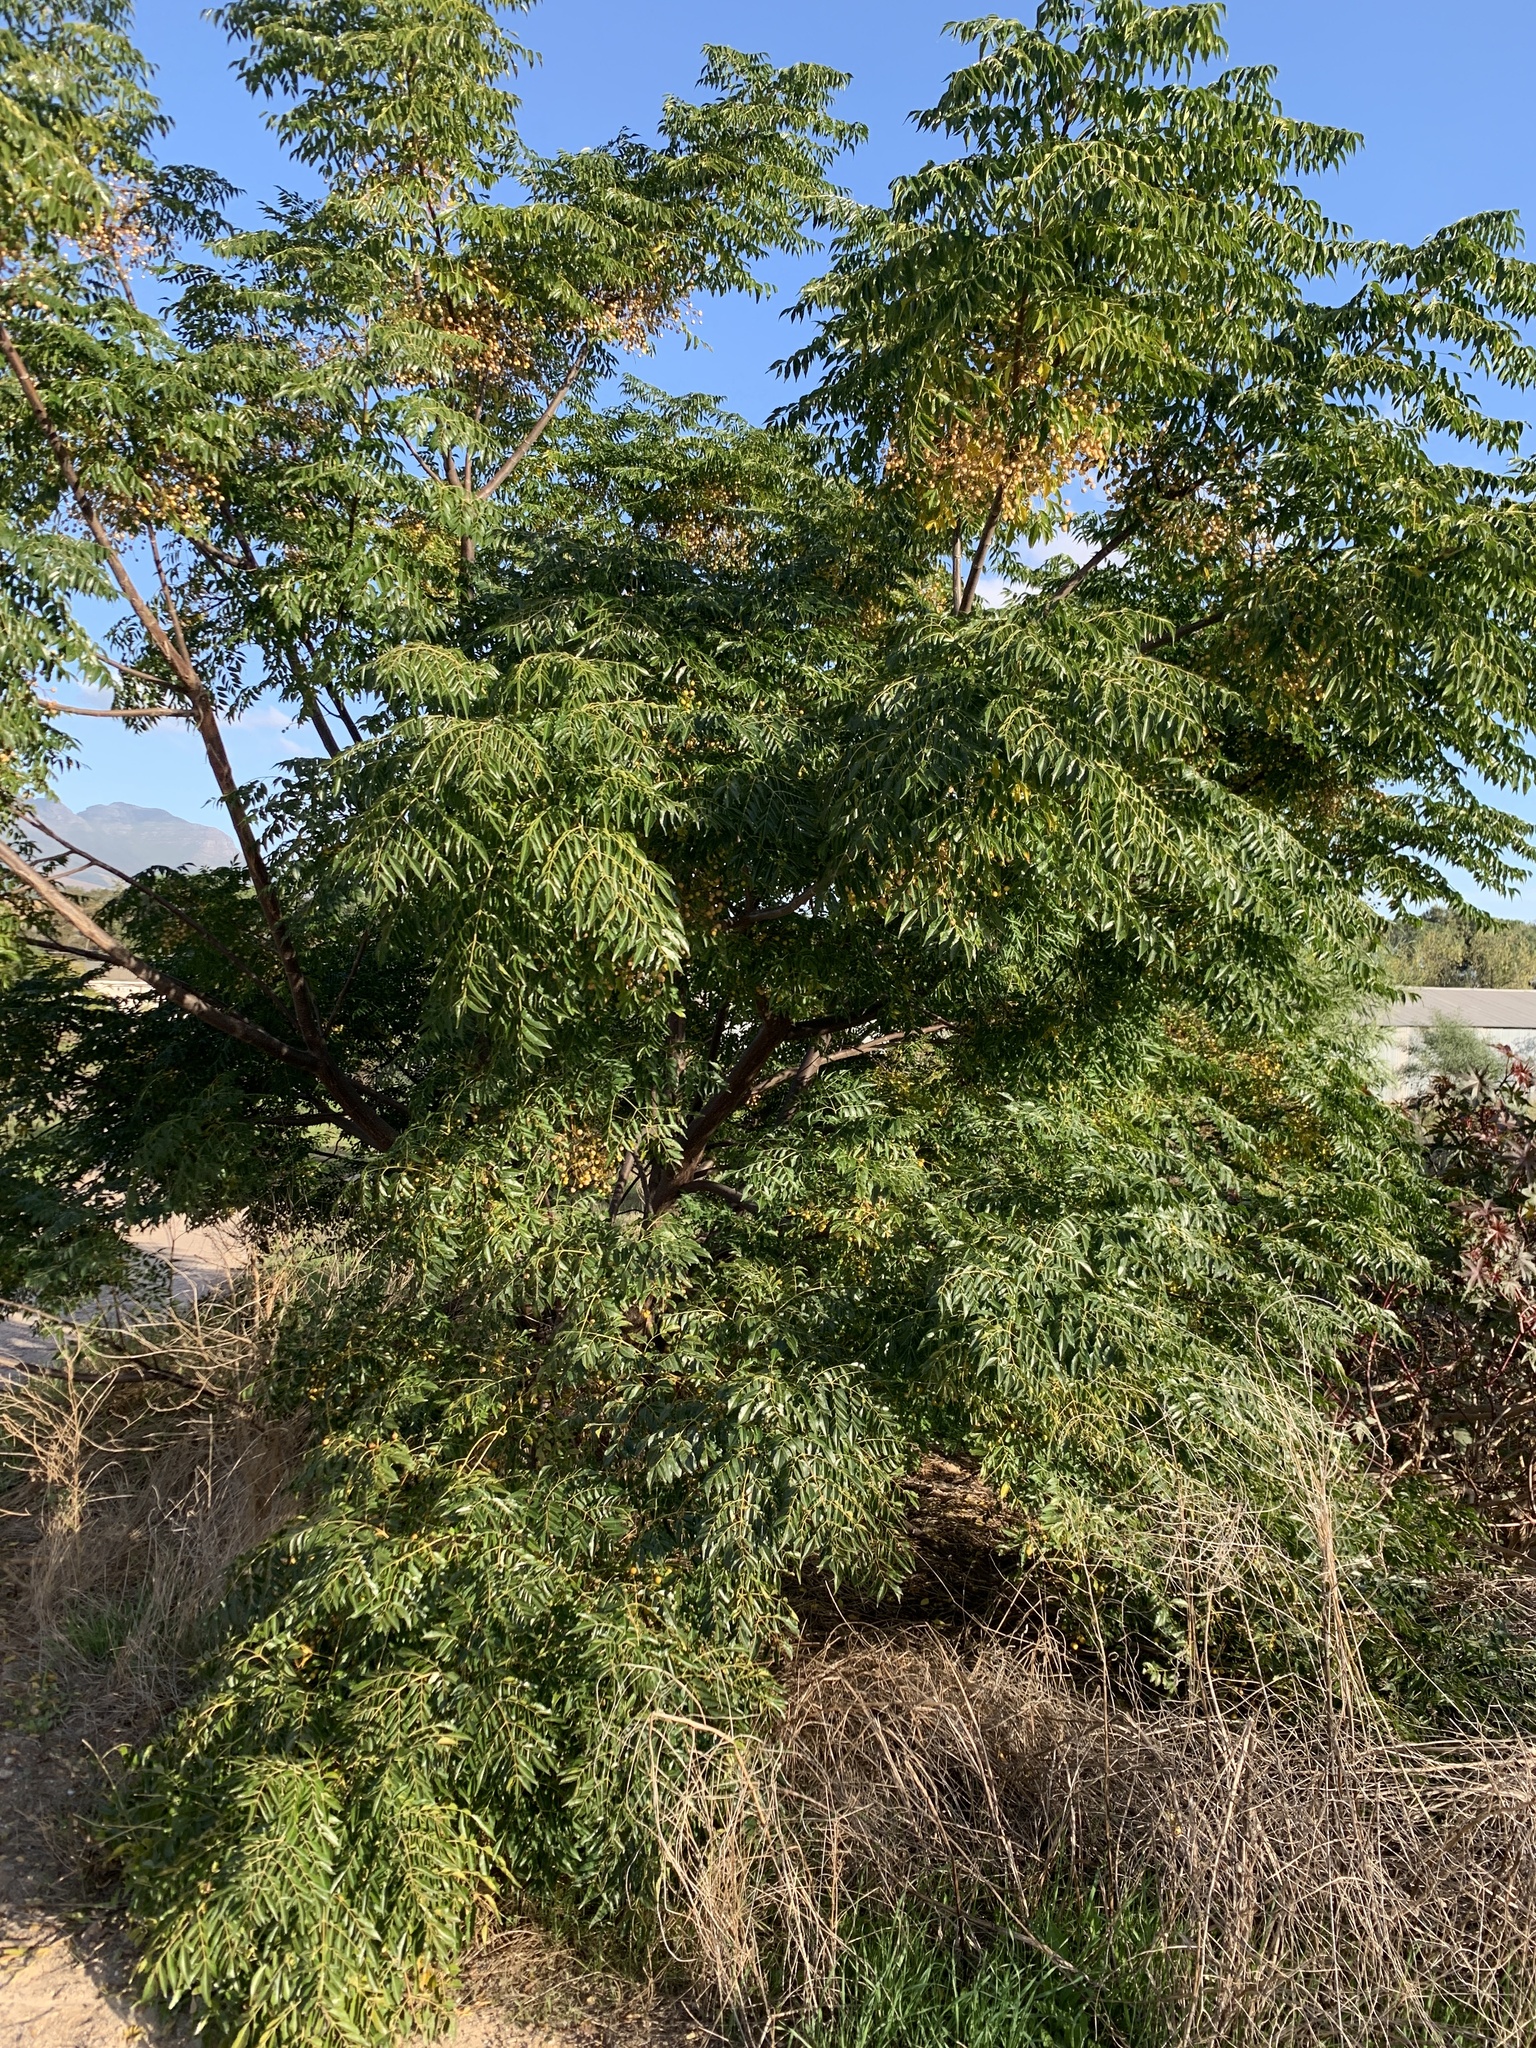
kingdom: Plantae
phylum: Tracheophyta
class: Magnoliopsida
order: Sapindales
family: Meliaceae
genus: Melia
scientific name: Melia azedarach
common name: Chinaberrytree
